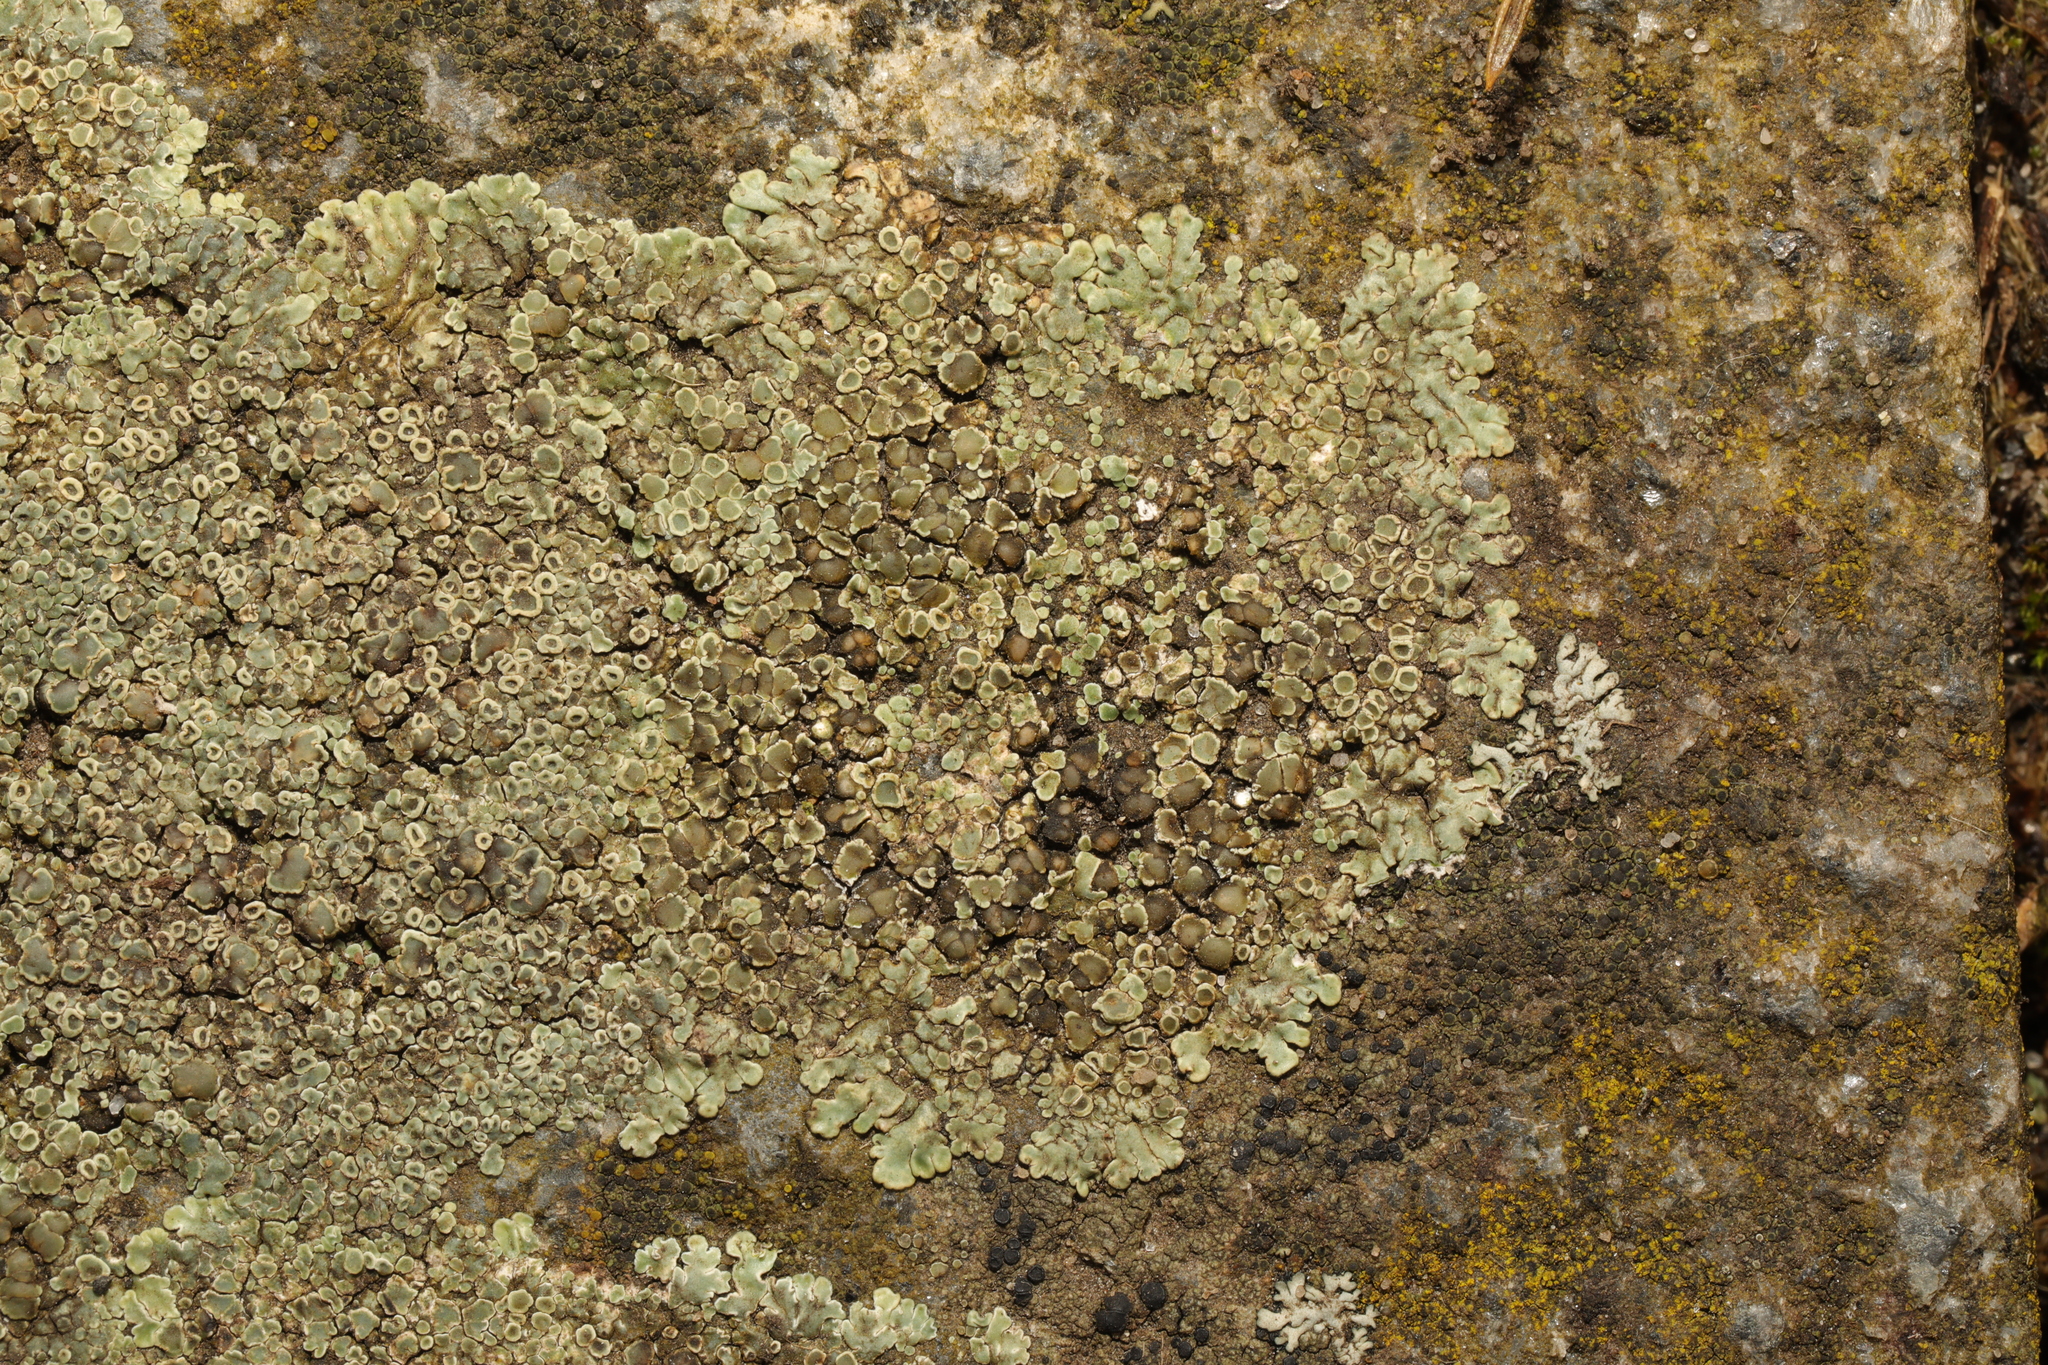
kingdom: Fungi
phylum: Ascomycota
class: Lecanoromycetes
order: Lecanorales
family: Lecanoraceae
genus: Protoparmeliopsis
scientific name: Protoparmeliopsis muralis
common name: Stonewall rim lichen
